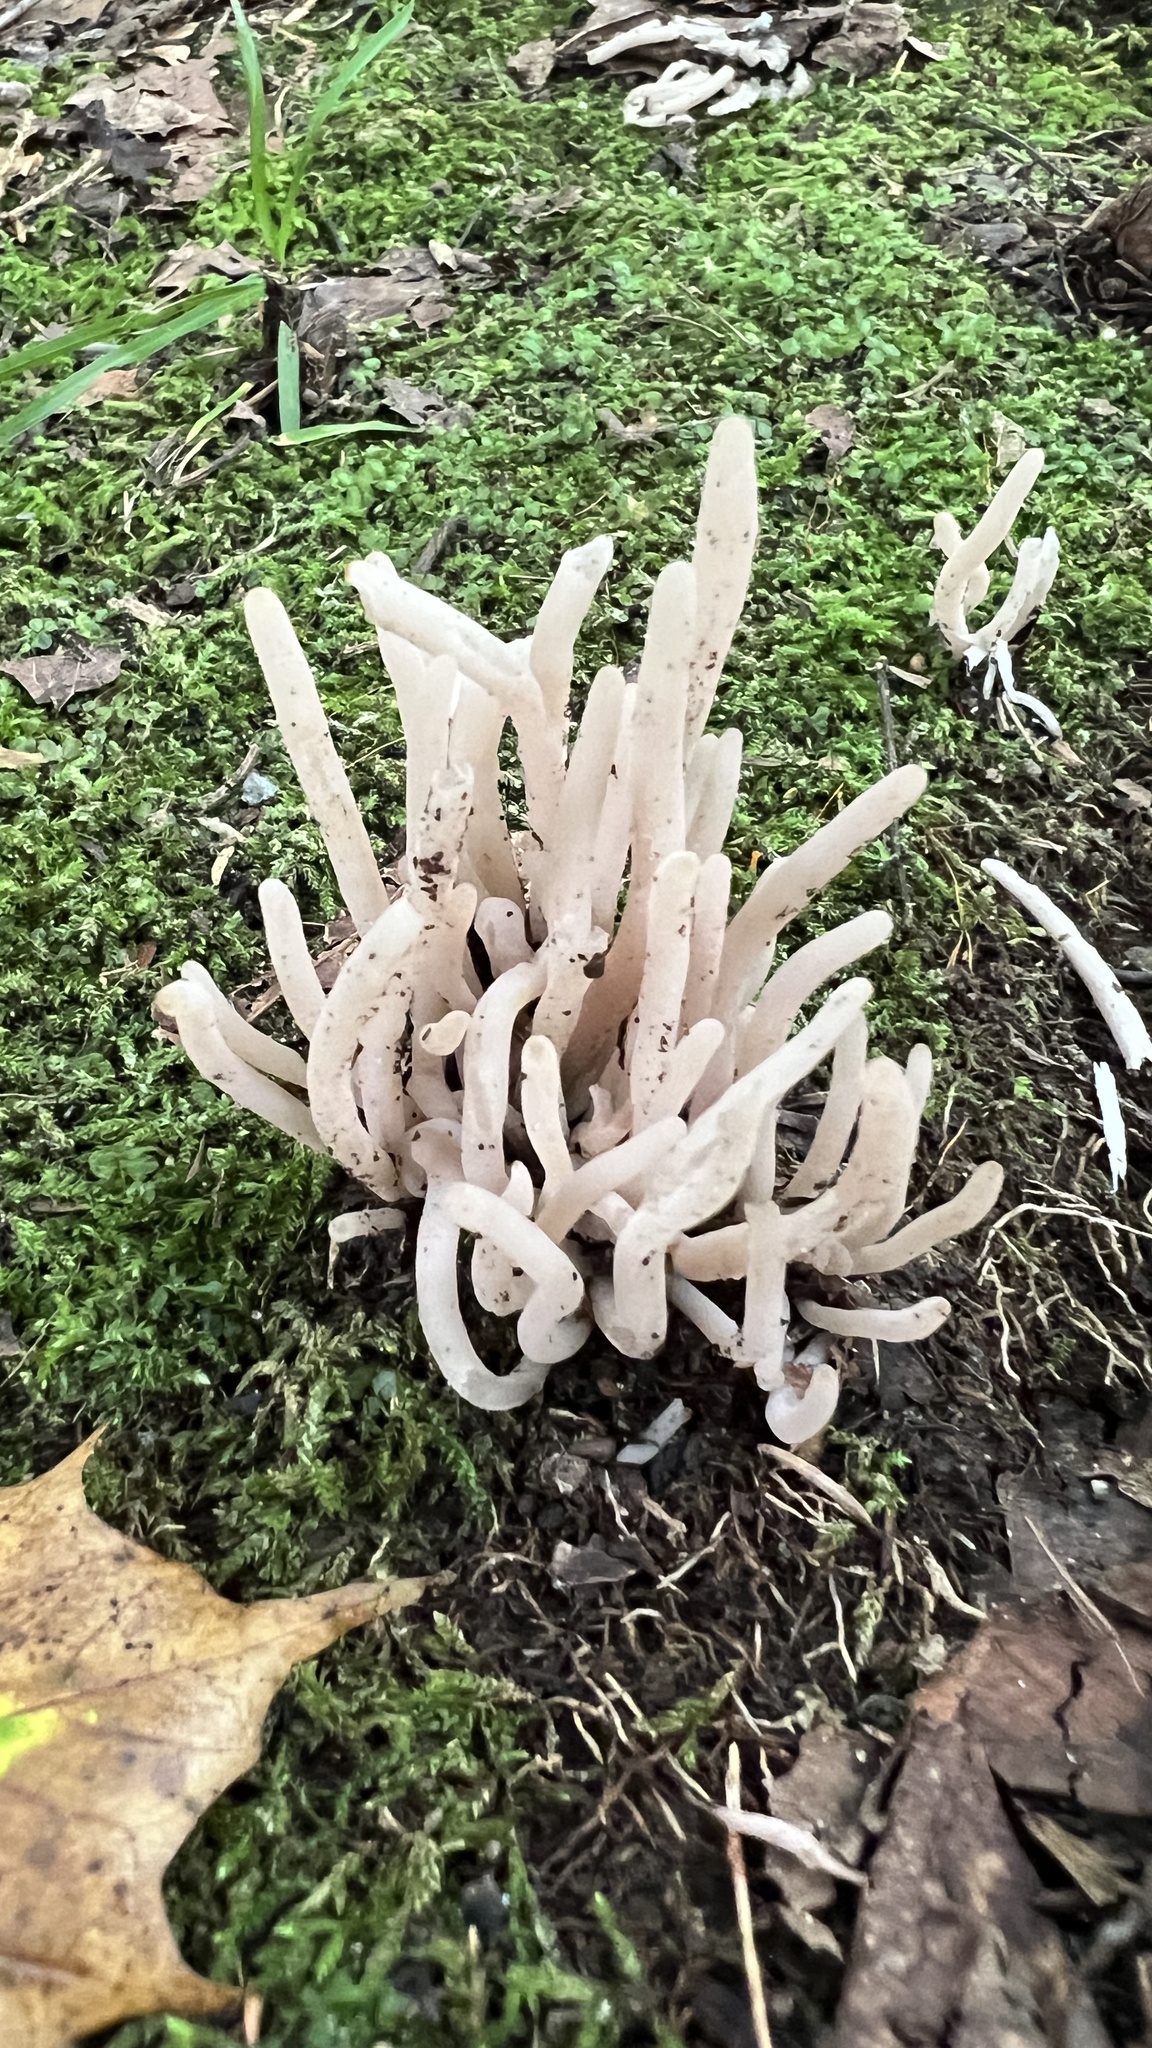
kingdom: Fungi
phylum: Basidiomycota
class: Agaricomycetes
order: Agaricales
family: Clavariaceae
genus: Clavaria
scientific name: Clavaria fumosa
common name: Smoky spindles
